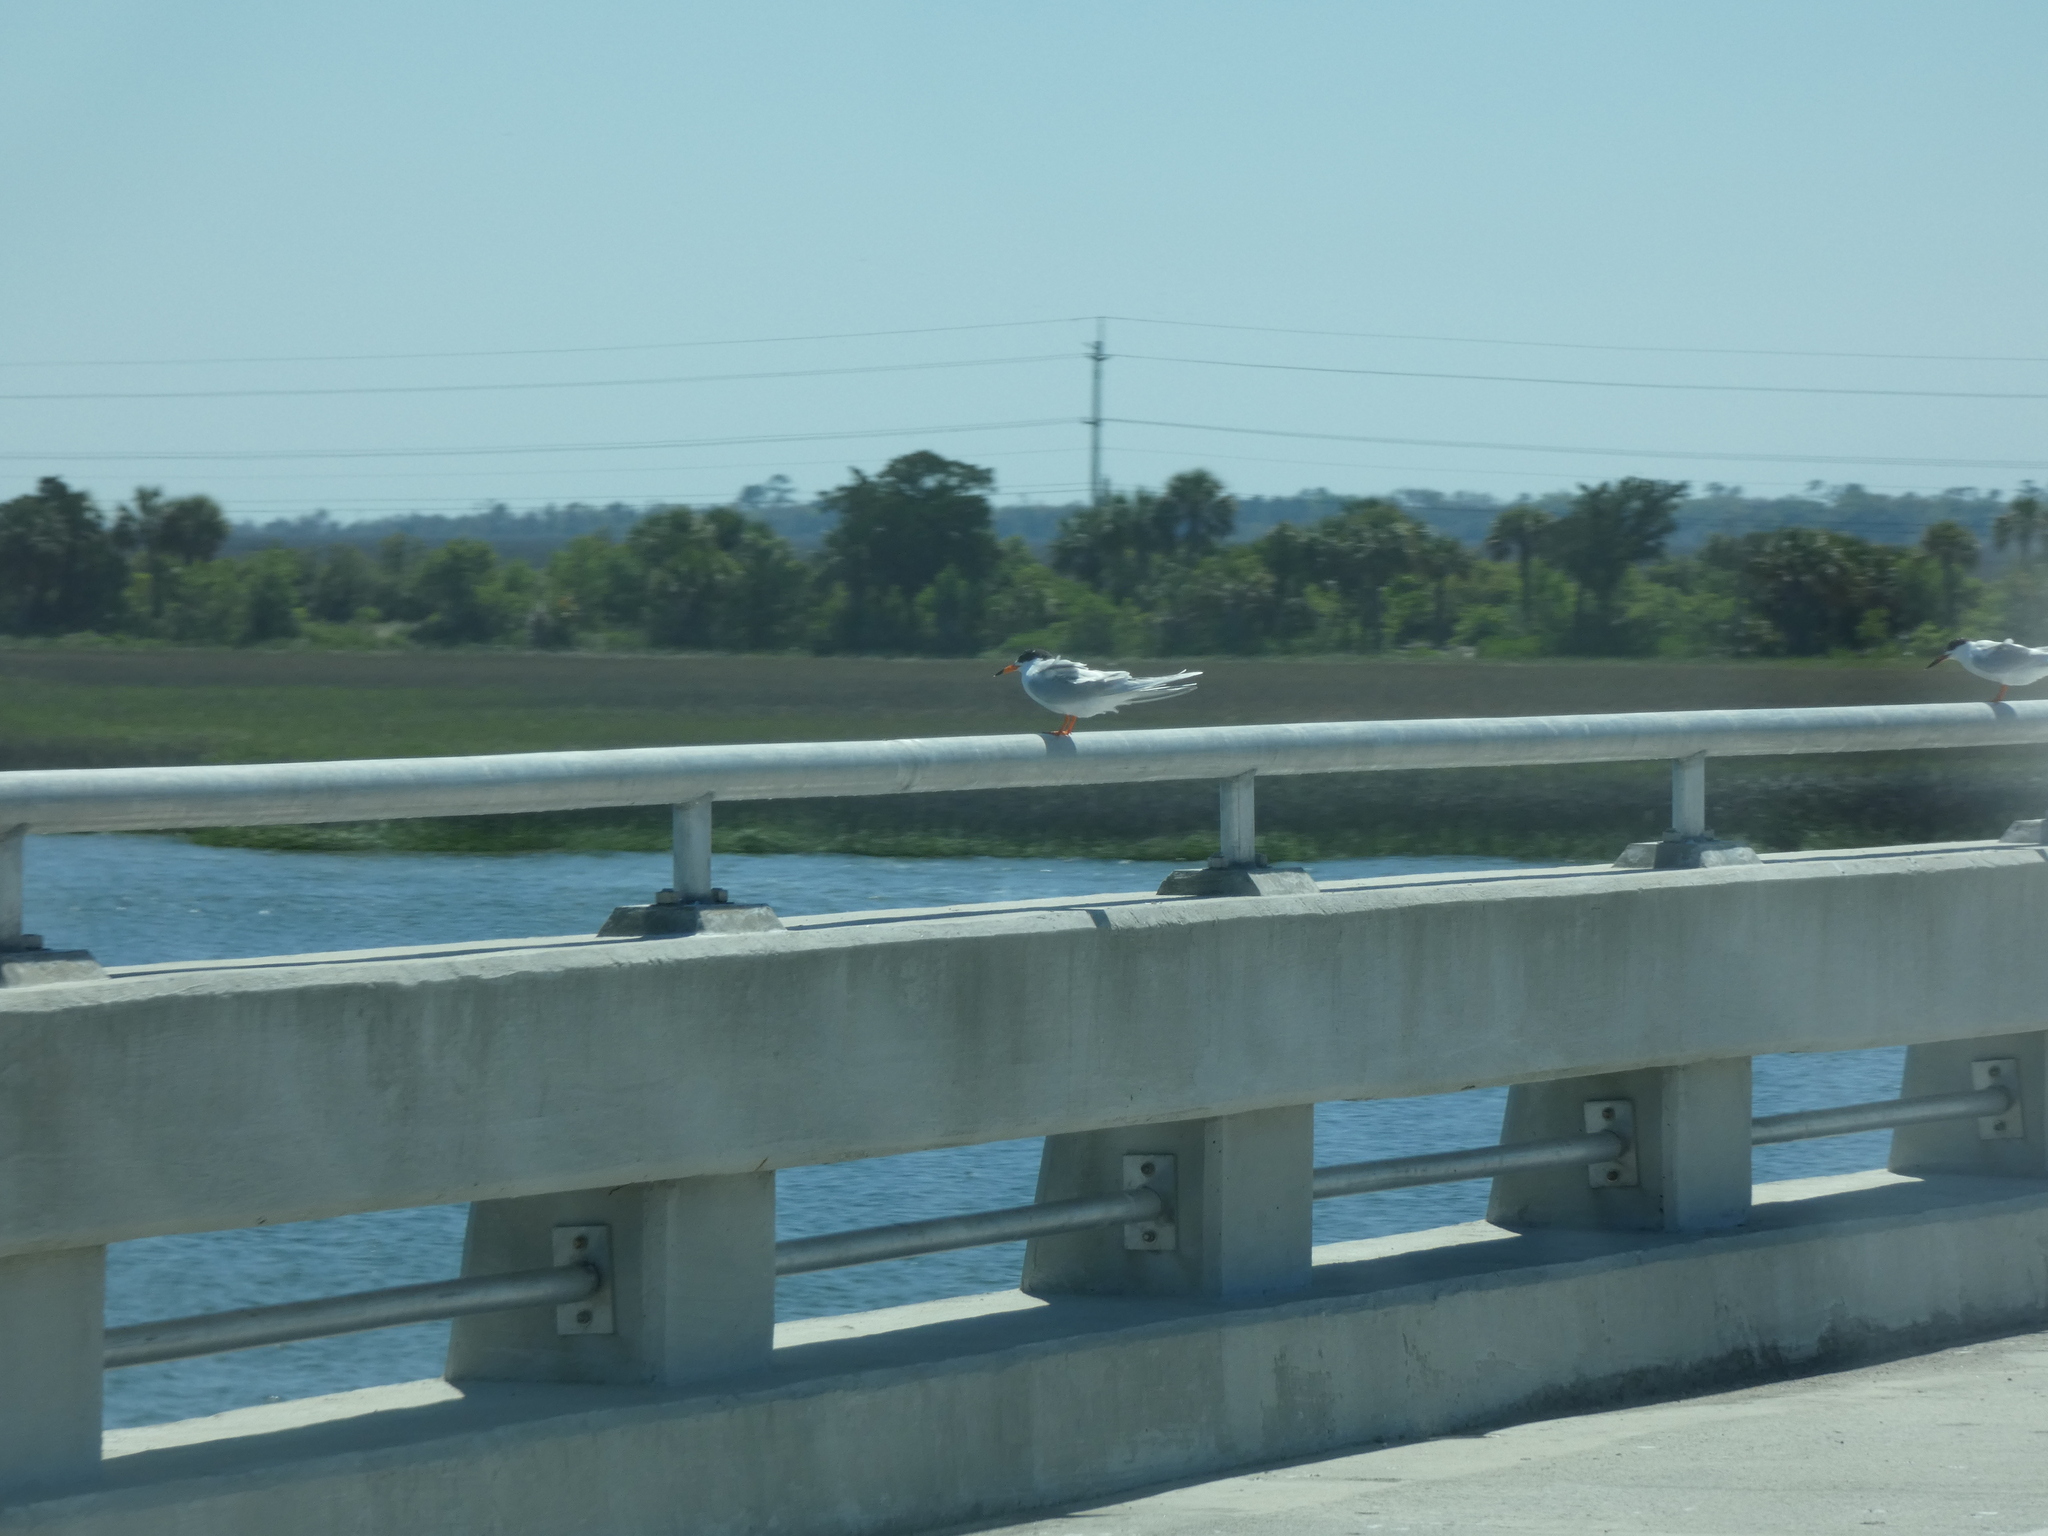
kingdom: Animalia
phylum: Chordata
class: Aves
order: Charadriiformes
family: Laridae
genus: Sterna
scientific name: Sterna forsteri
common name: Forster's tern
